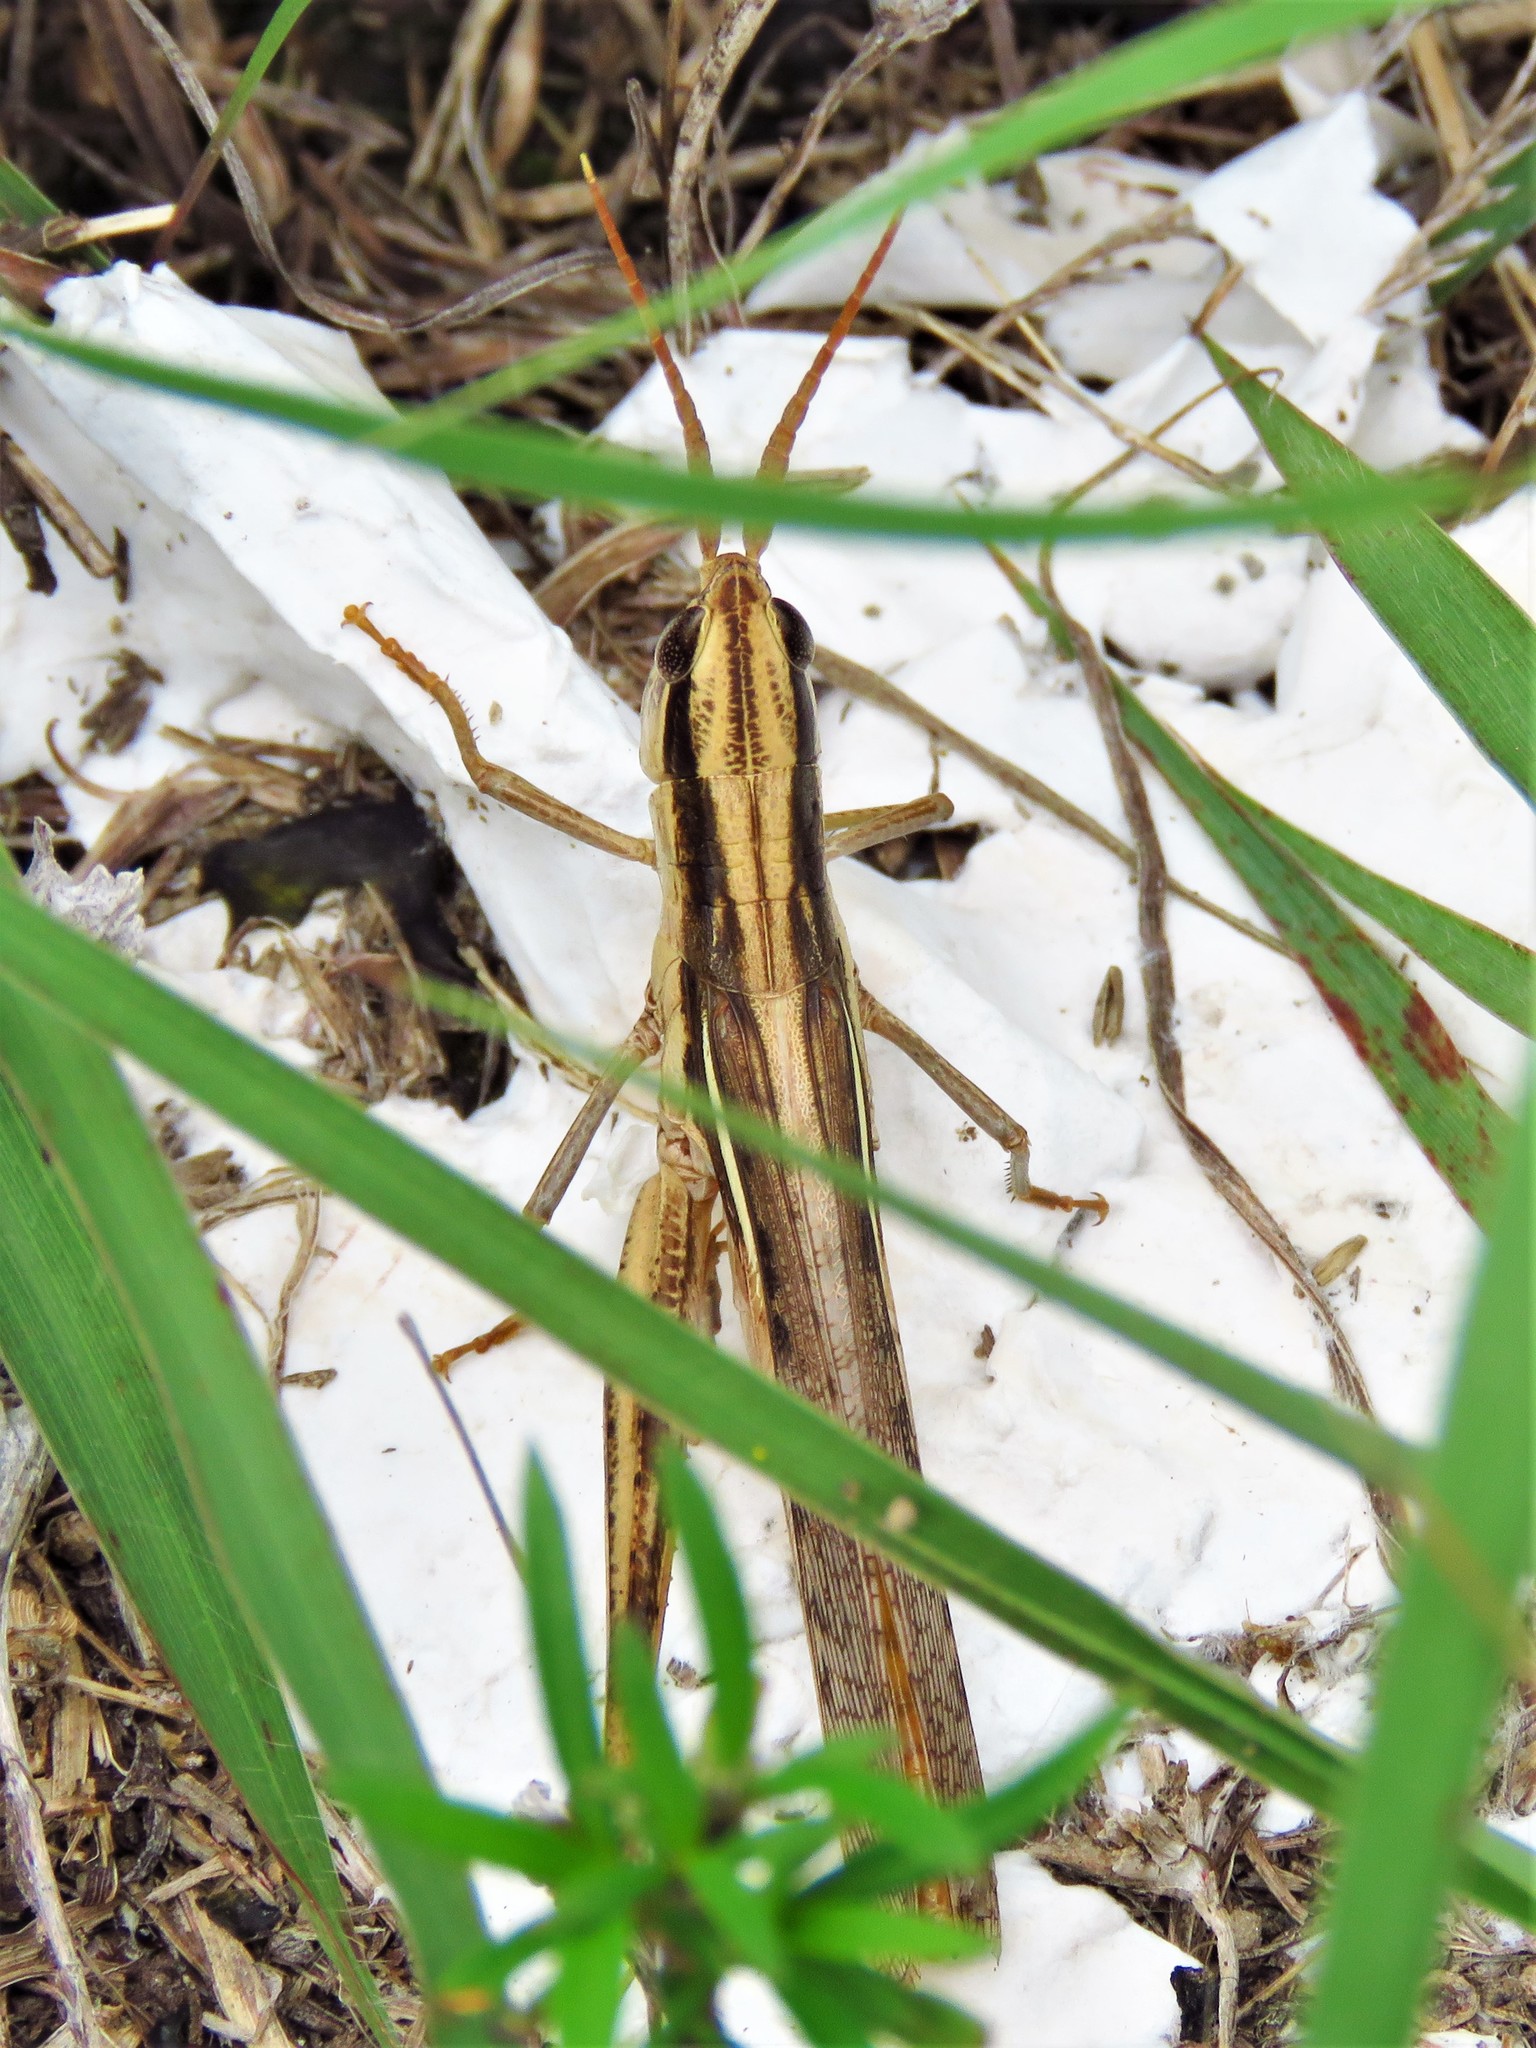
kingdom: Animalia
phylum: Arthropoda
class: Insecta
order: Orthoptera
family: Acrididae
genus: Mermiria
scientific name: Mermiria bivittata
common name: Two-striped mermiria grasshopper
